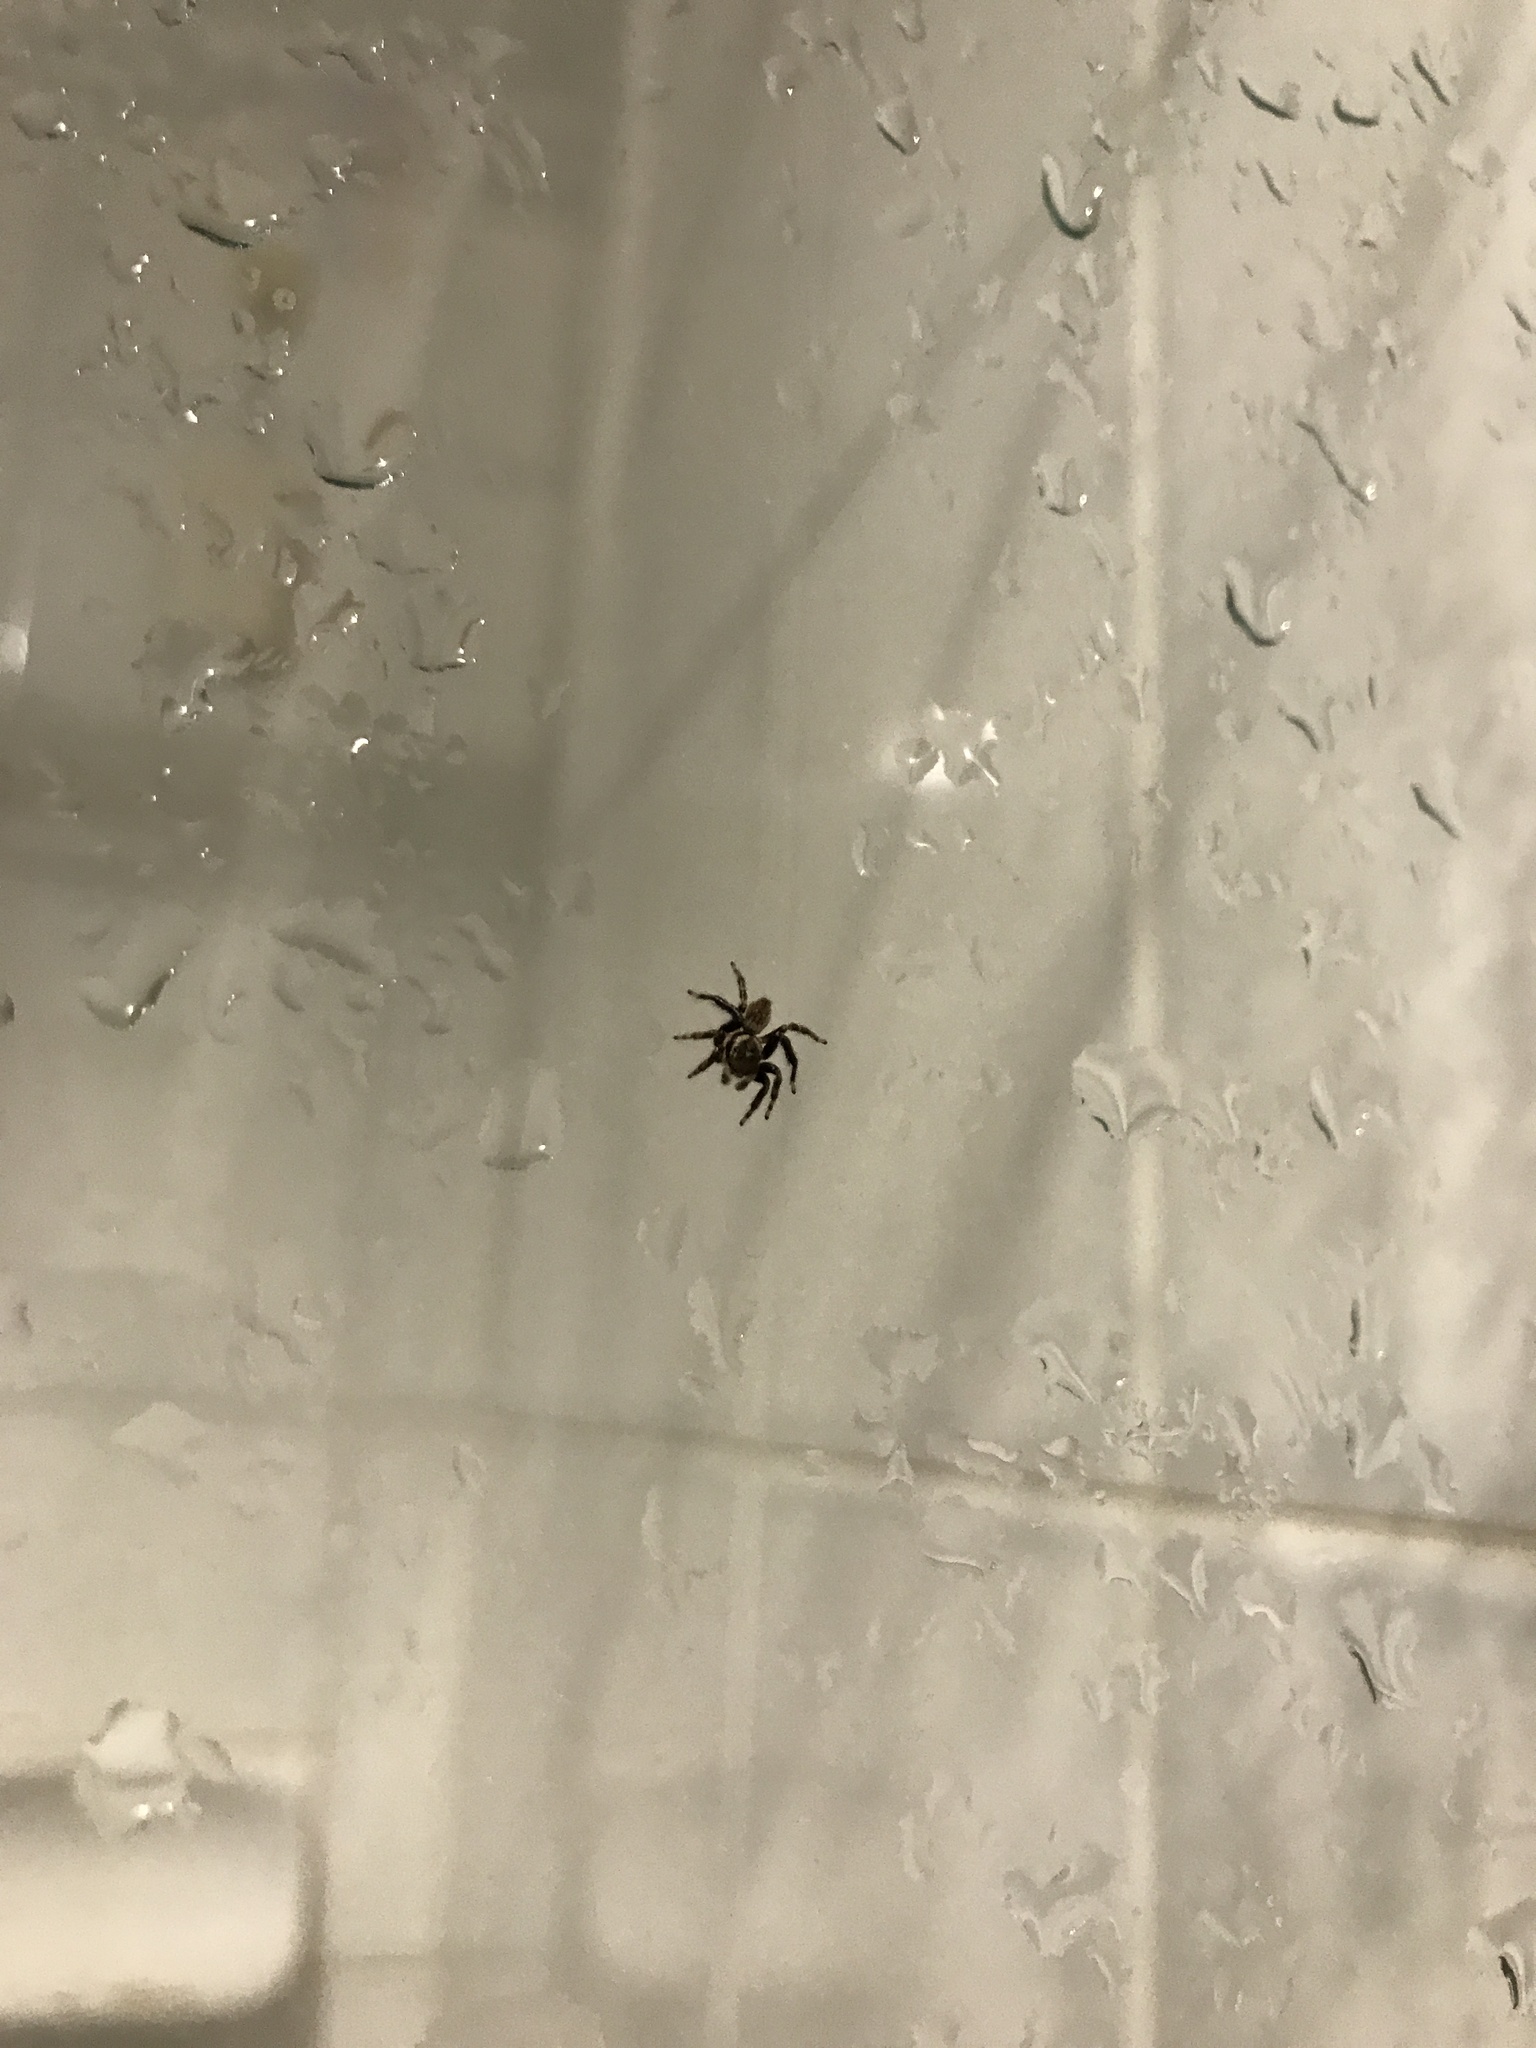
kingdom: Animalia
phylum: Arthropoda
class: Arachnida
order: Araneae
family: Salticidae
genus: Maratus
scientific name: Maratus griseus
